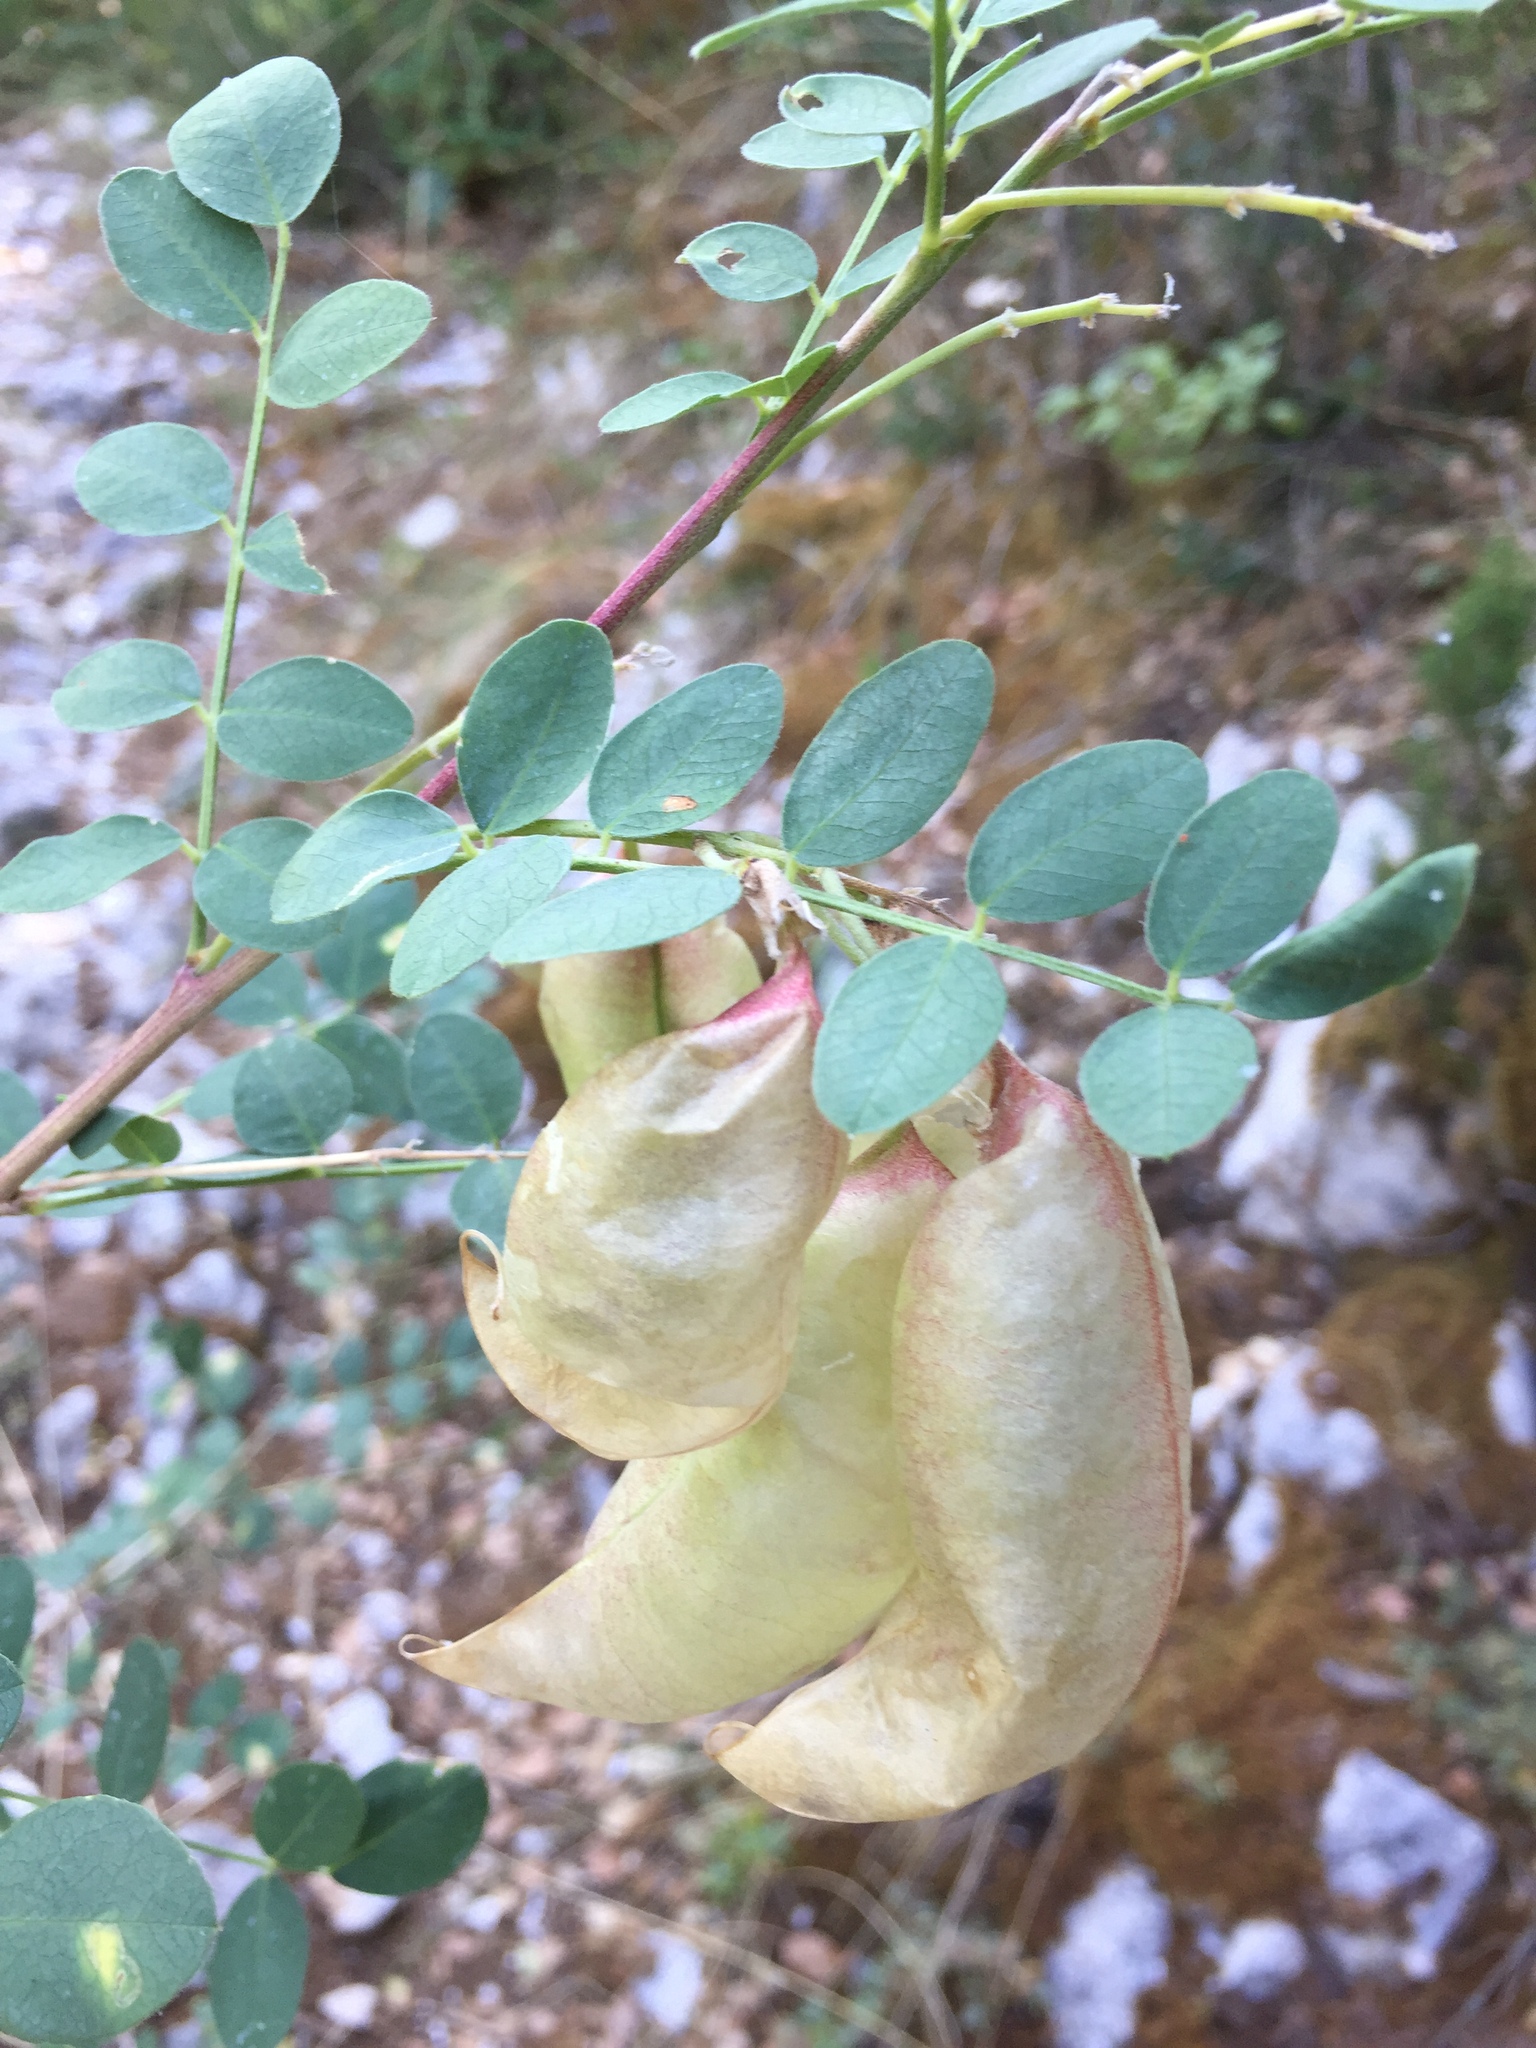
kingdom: Plantae
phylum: Tracheophyta
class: Magnoliopsida
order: Fabales
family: Fabaceae
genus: Colutea
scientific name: Colutea arborescens
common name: Bladder-senna
